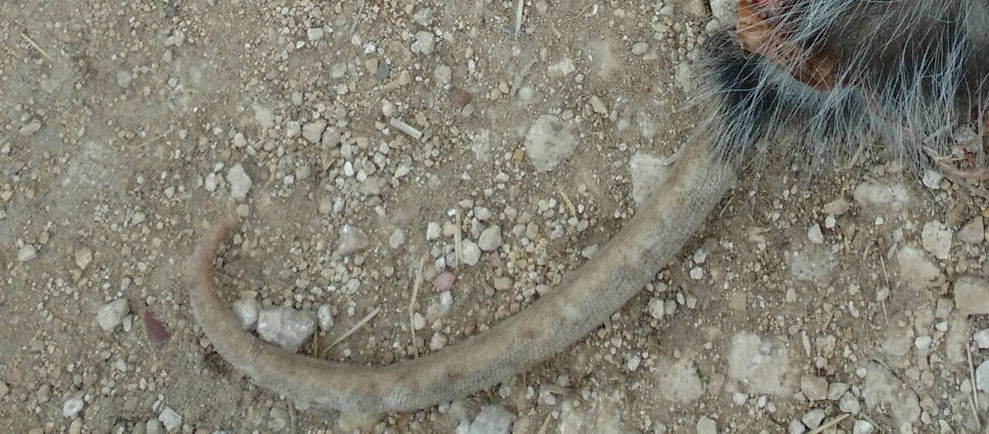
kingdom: Animalia
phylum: Chordata
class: Mammalia
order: Didelphimorphia
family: Didelphidae
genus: Didelphis
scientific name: Didelphis virginiana
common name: Virginia opossum
